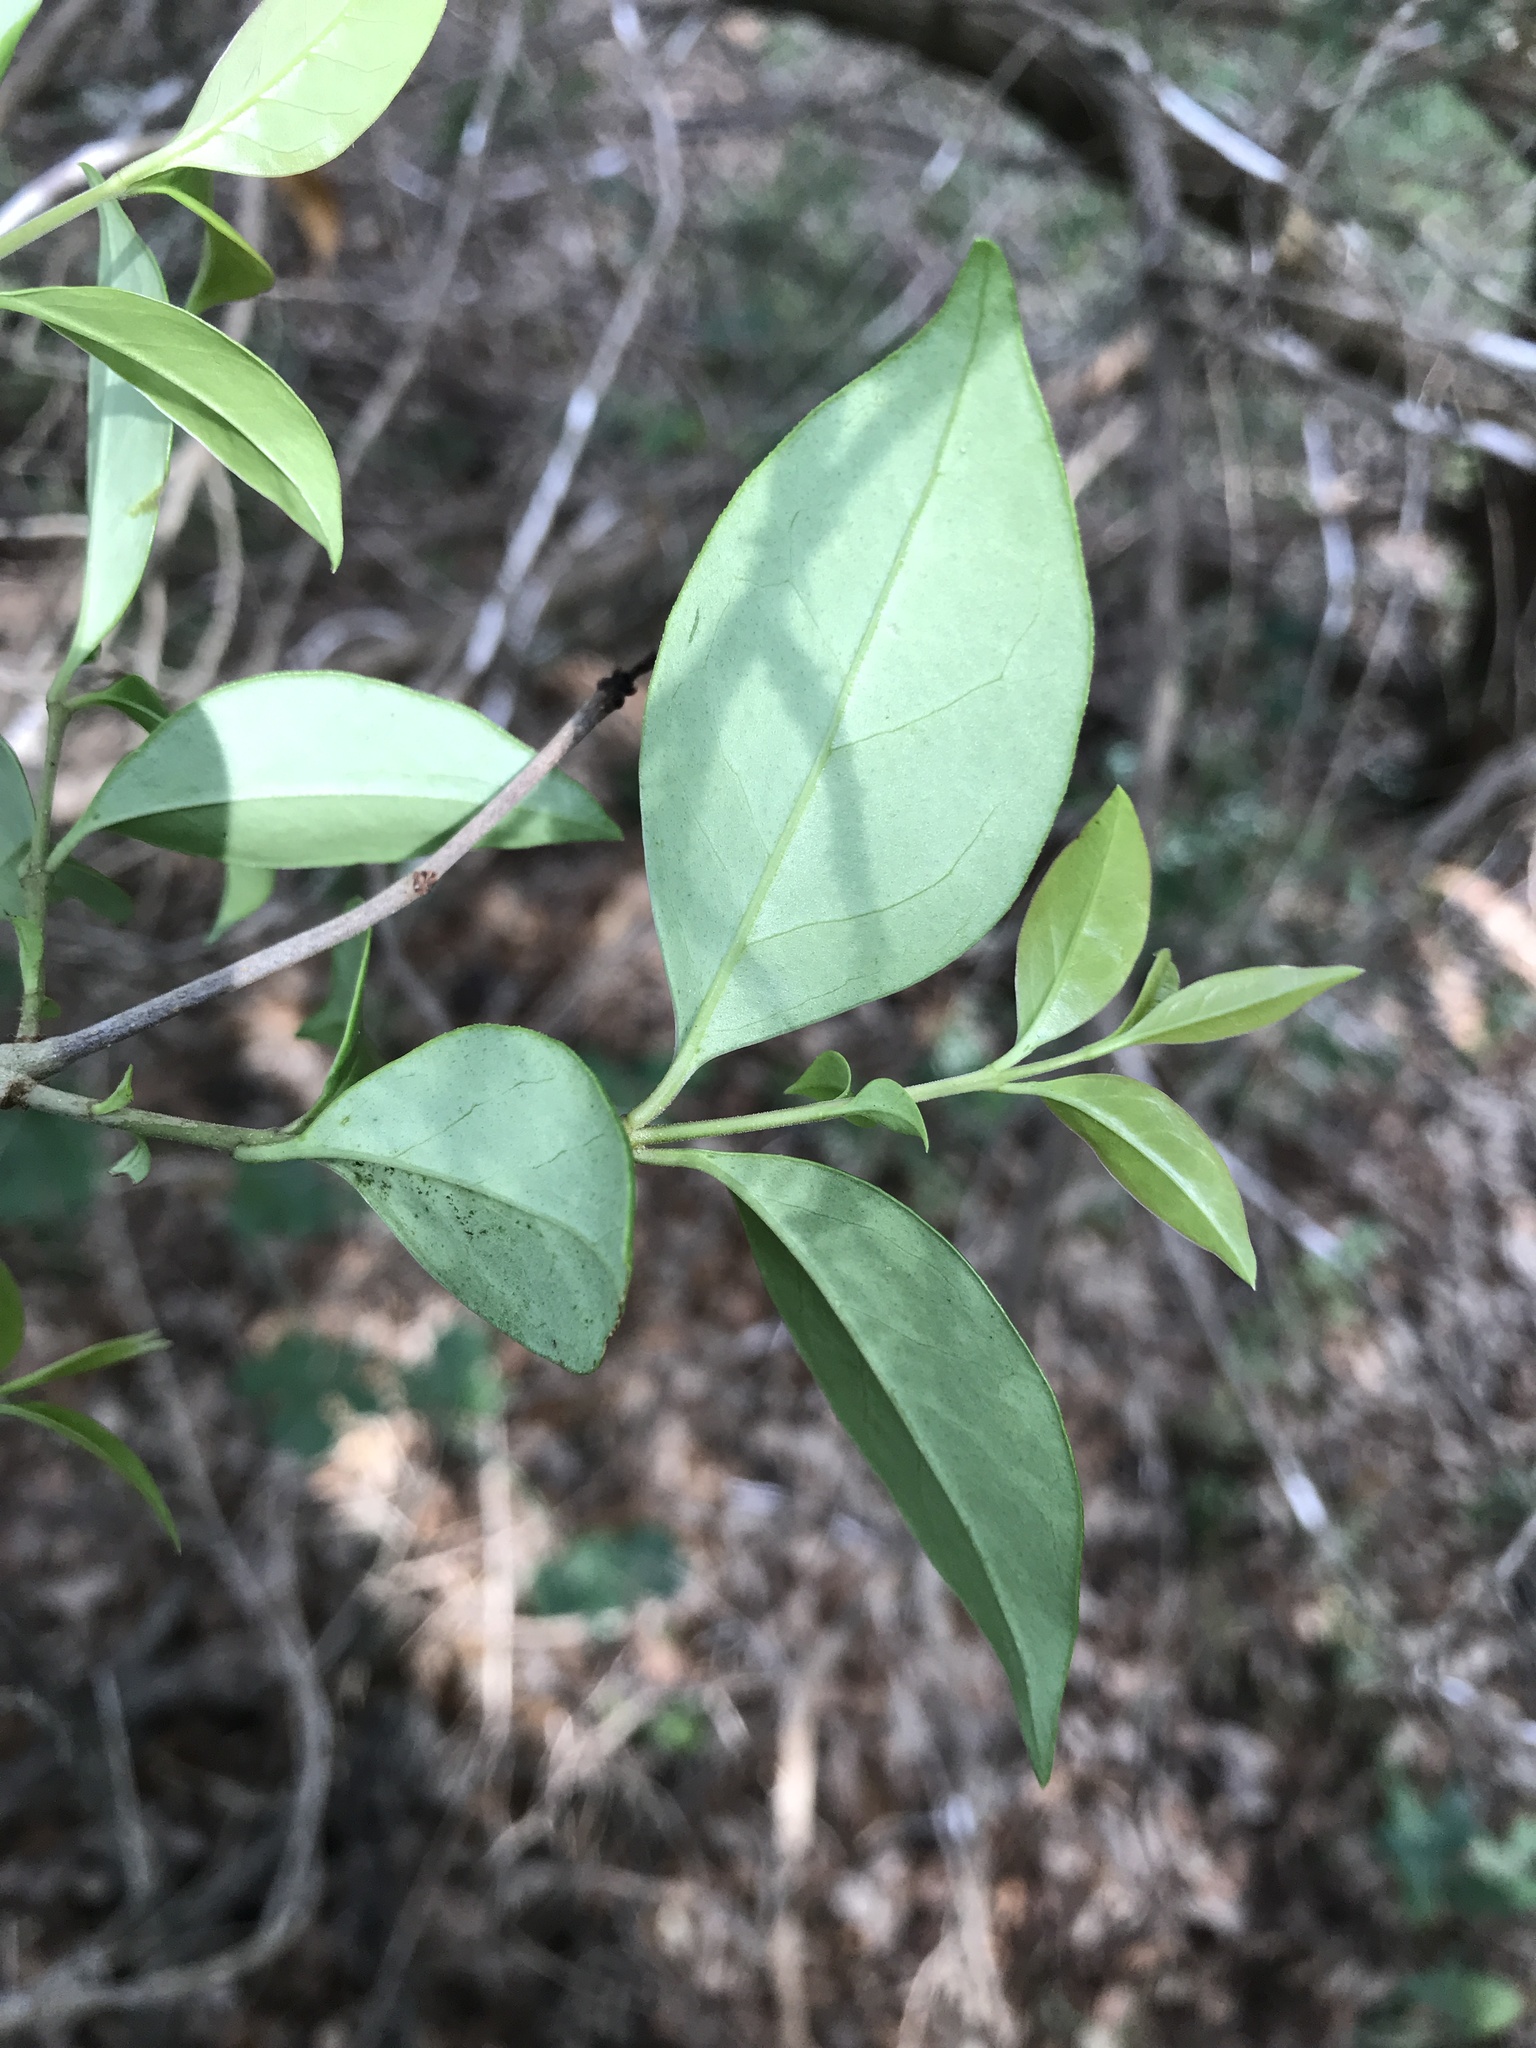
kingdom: Plantae
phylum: Tracheophyta
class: Magnoliopsida
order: Lamiales
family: Oleaceae
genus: Ligustrum
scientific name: Ligustrum lucidum
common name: Glossy privet
